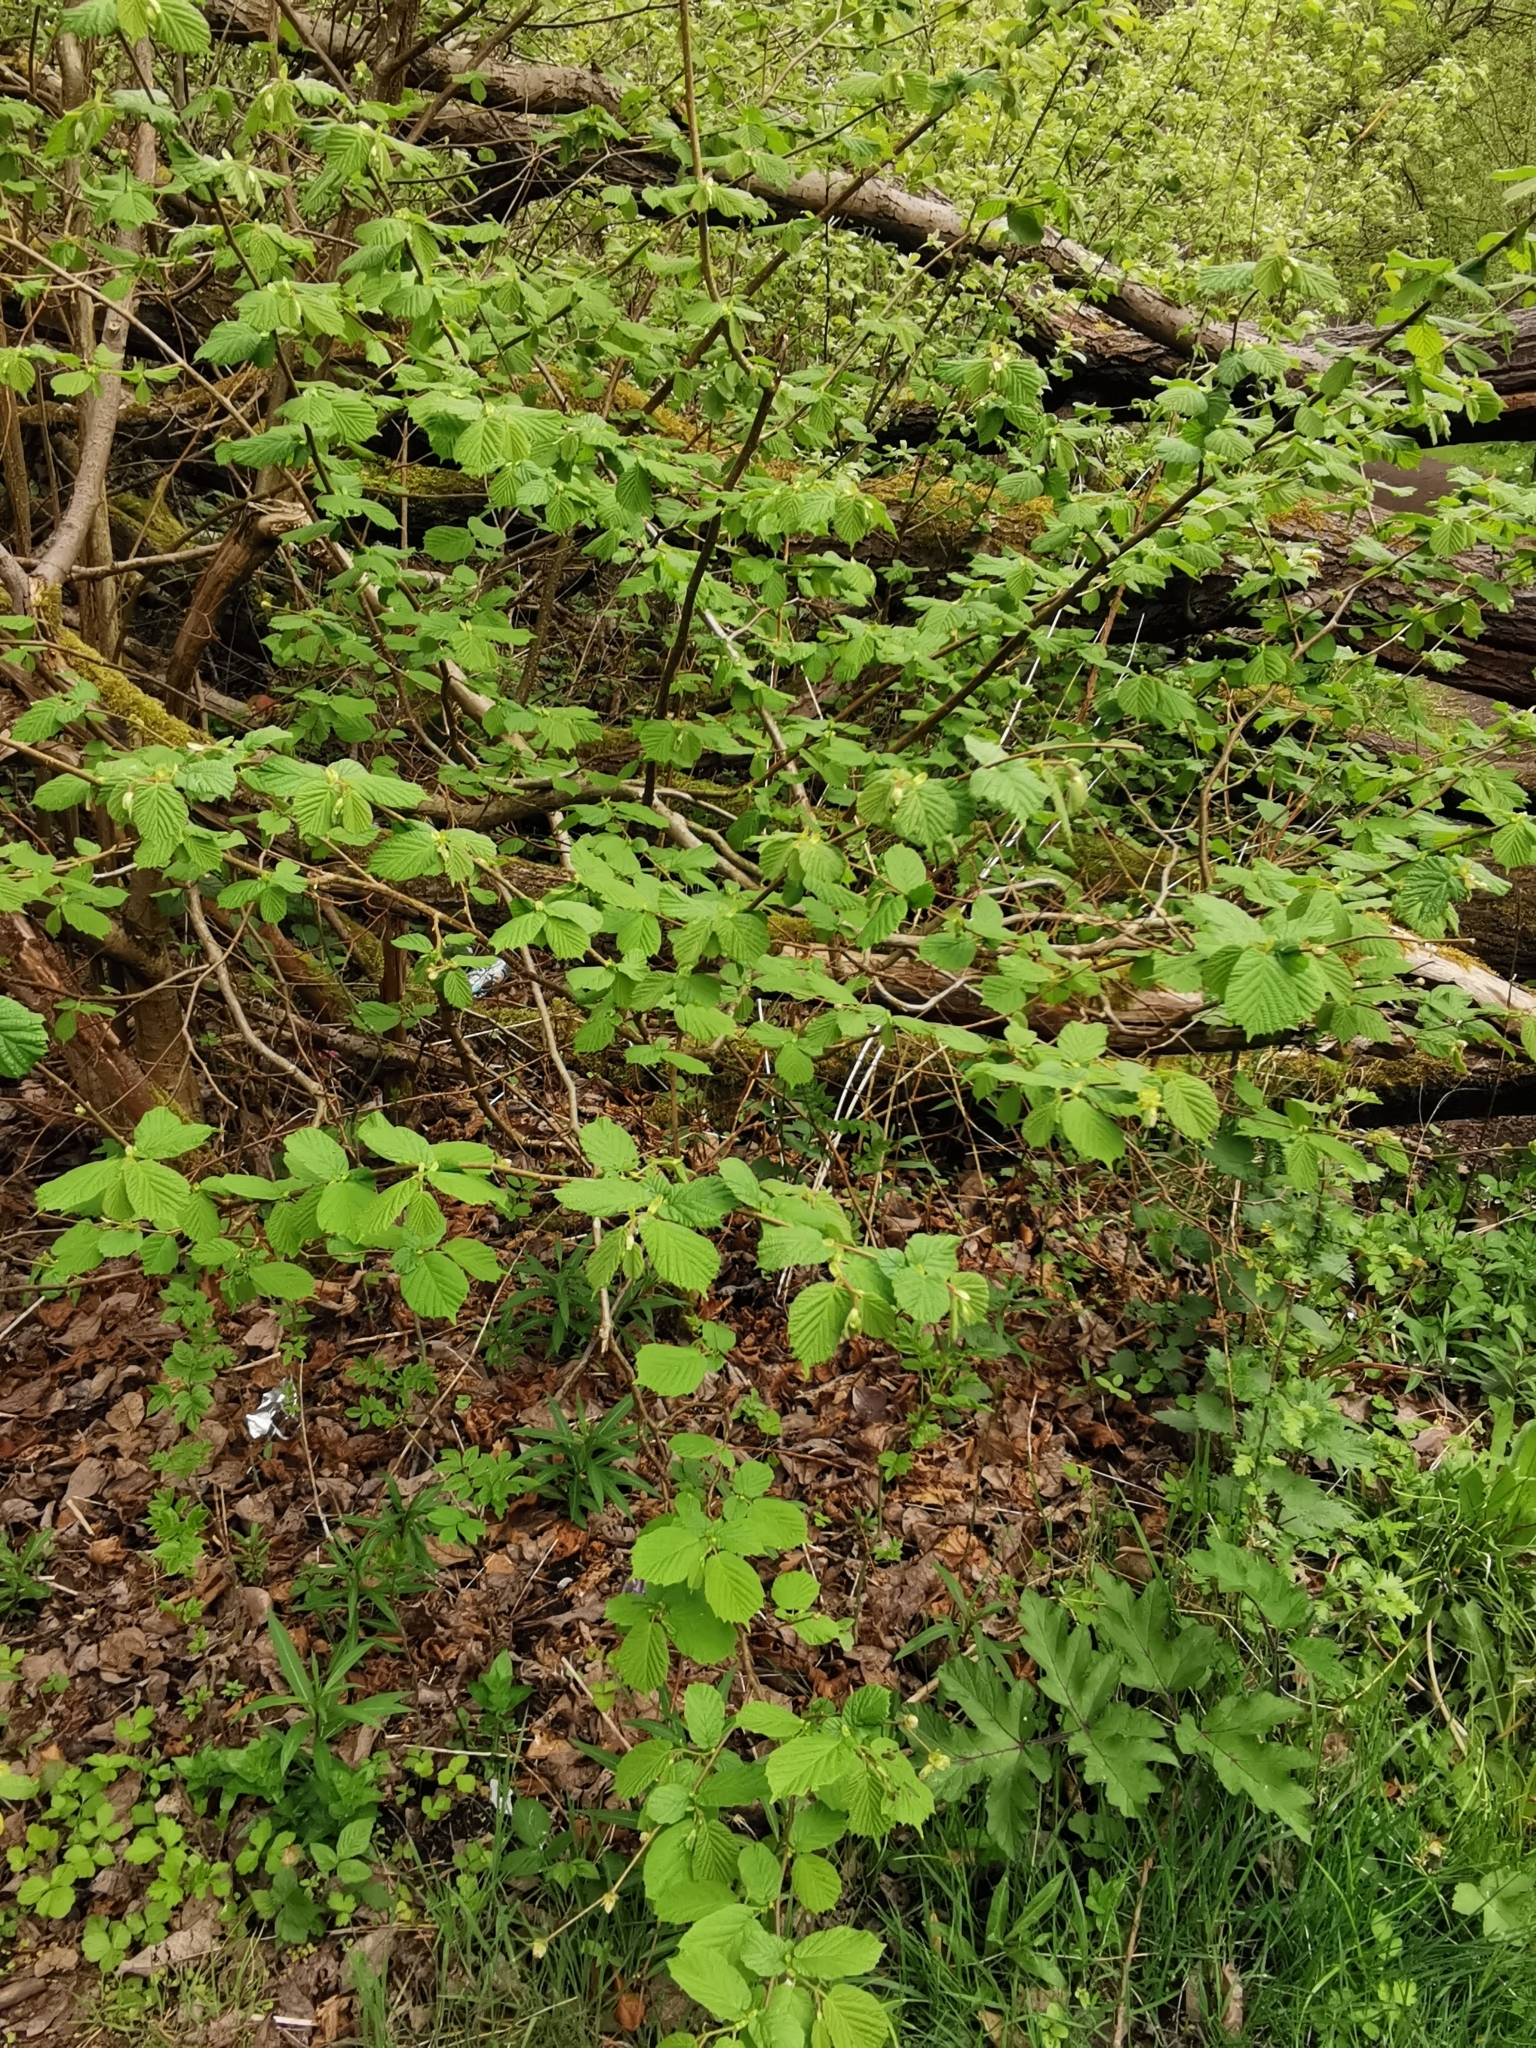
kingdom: Plantae
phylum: Tracheophyta
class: Magnoliopsida
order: Fagales
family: Betulaceae
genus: Corylus
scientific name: Corylus avellana
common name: European hazel
